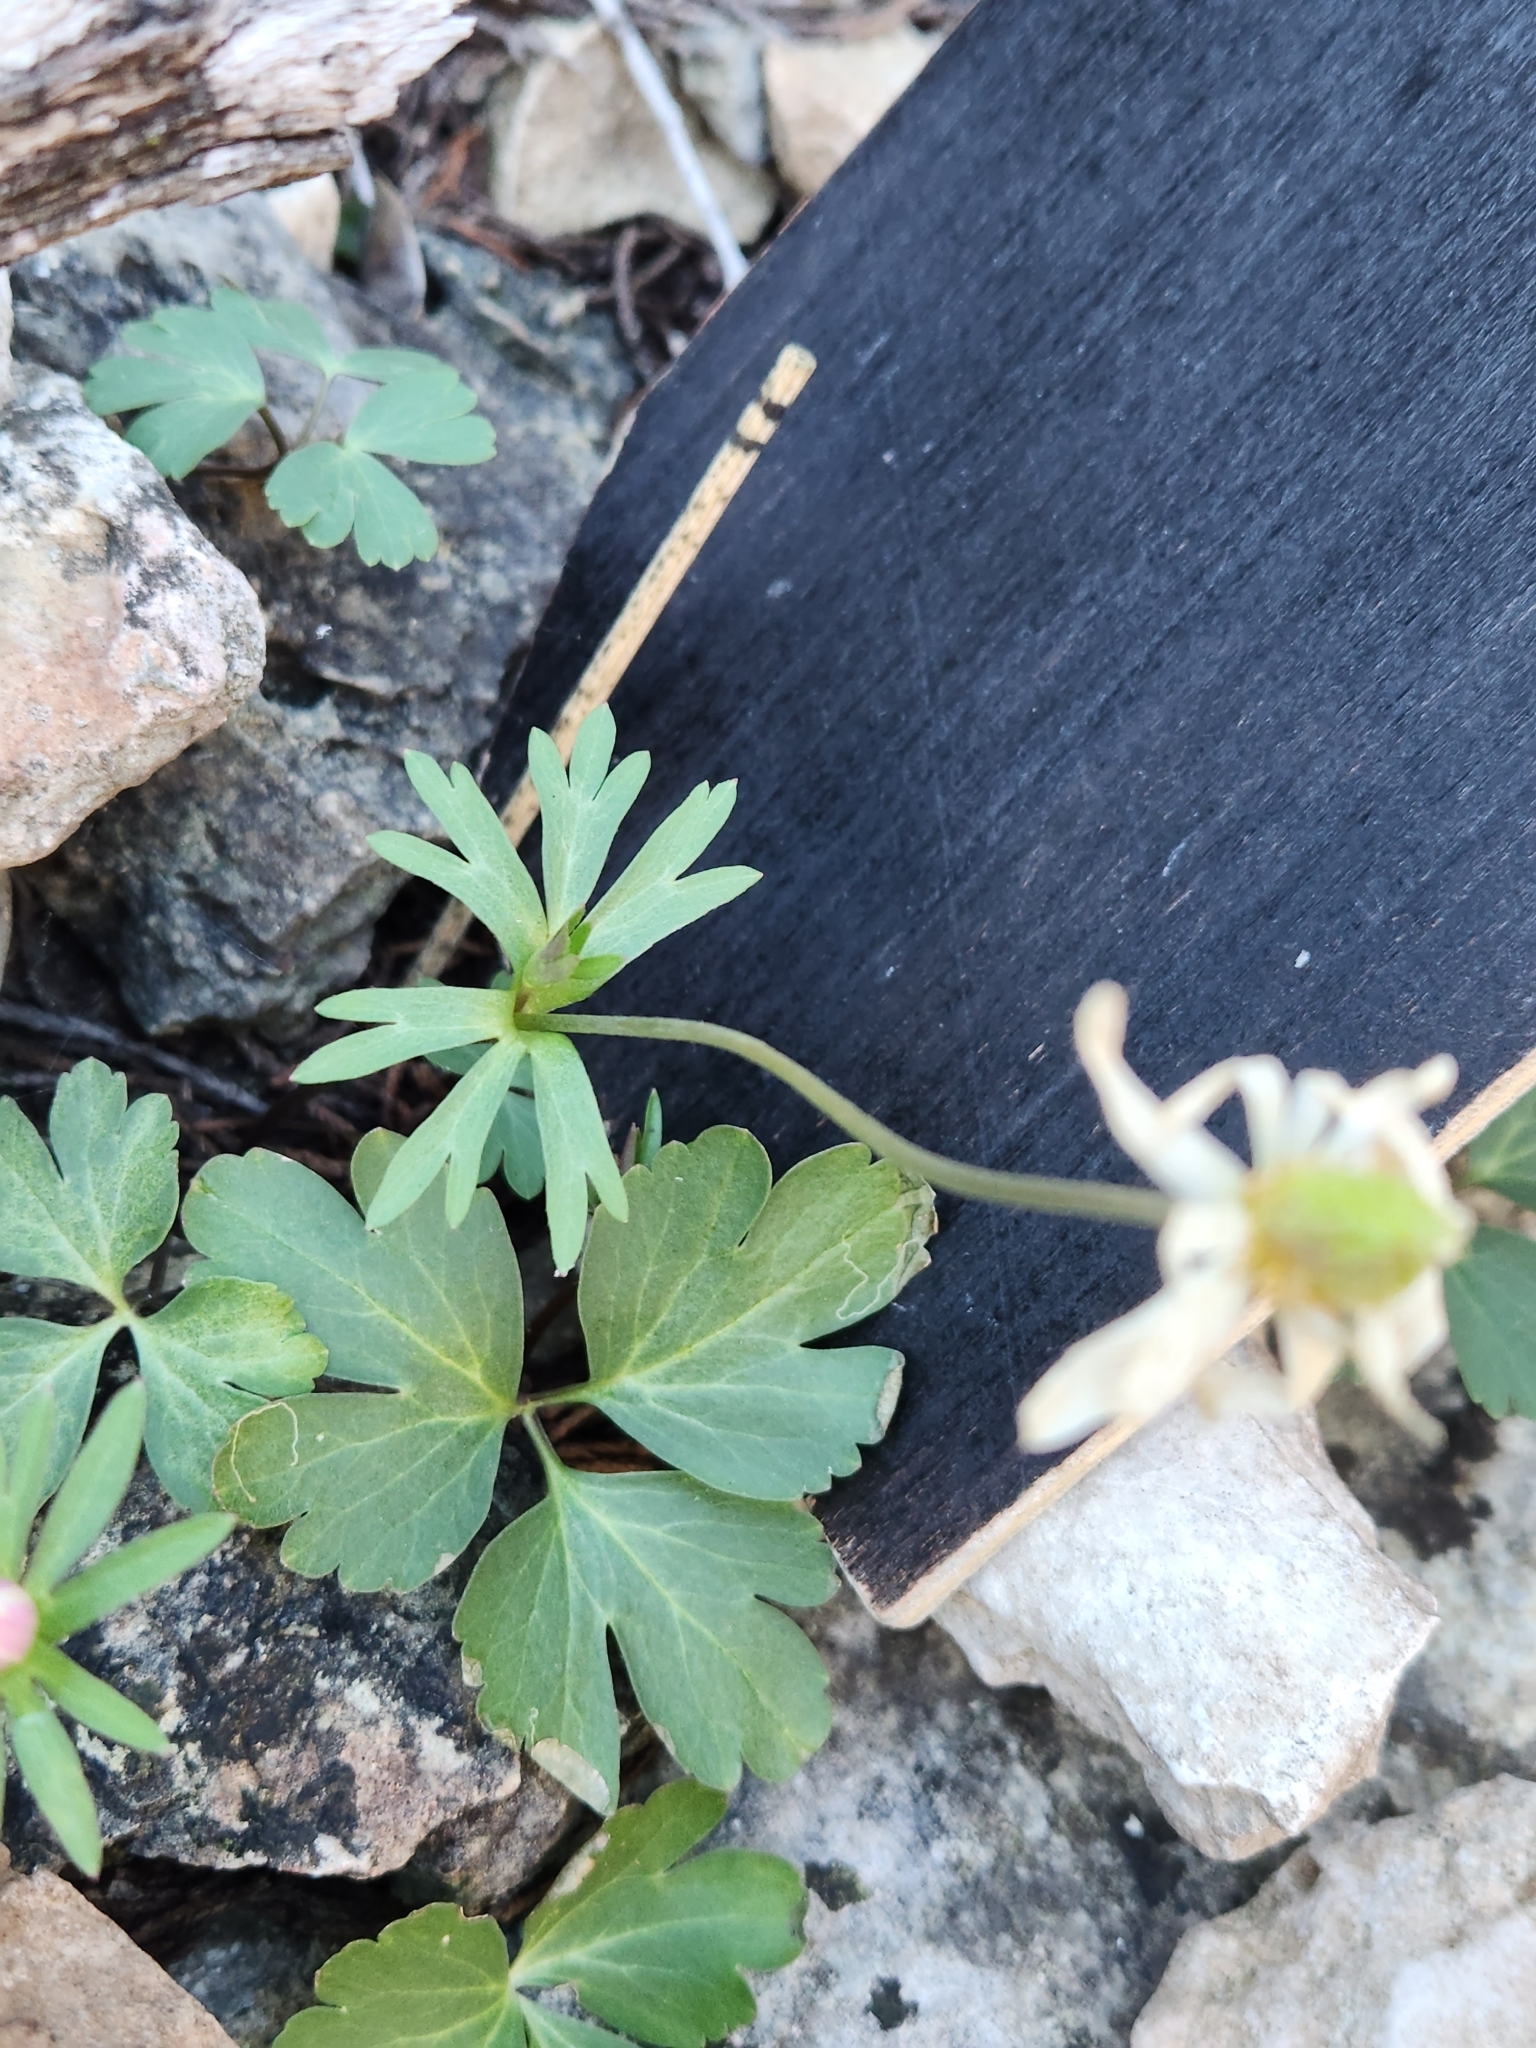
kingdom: Plantae
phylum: Tracheophyta
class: Magnoliopsida
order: Ranunculales
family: Ranunculaceae
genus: Anemone
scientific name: Anemone edwardsiana
